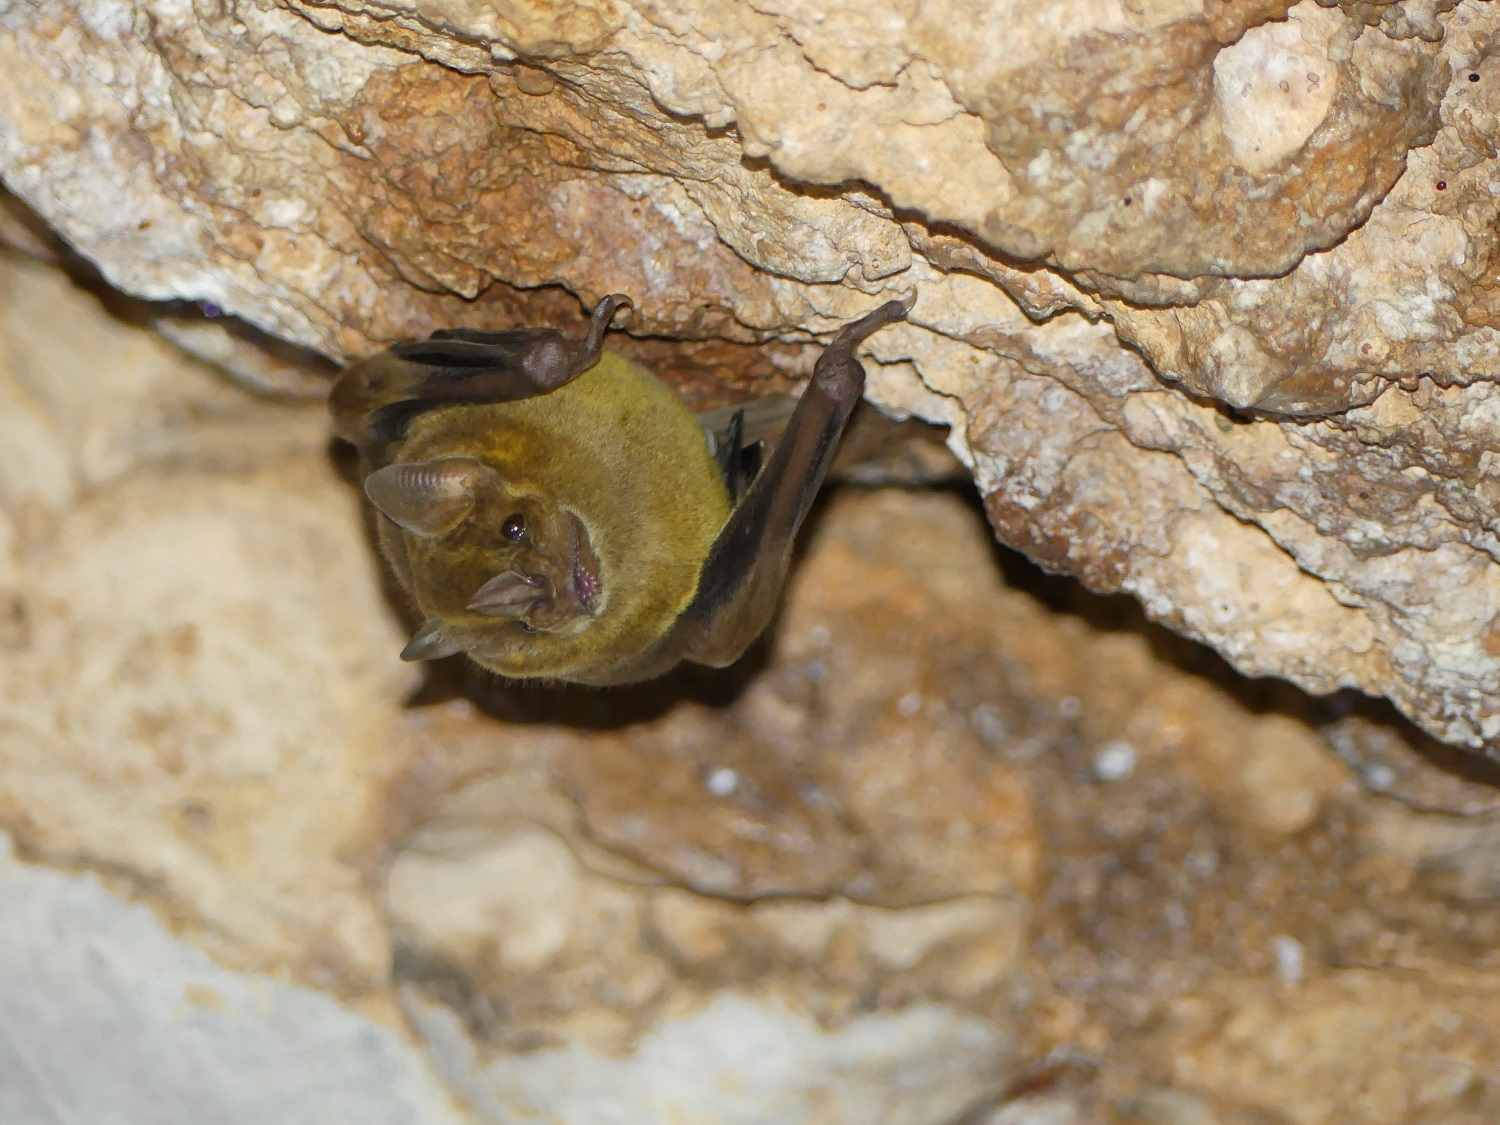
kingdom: Animalia
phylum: Chordata
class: Mammalia
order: Chiroptera
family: Phyllostomidae
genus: Artibeus
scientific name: Artibeus jamaicensis
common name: Jamaican fruit-eating bat
